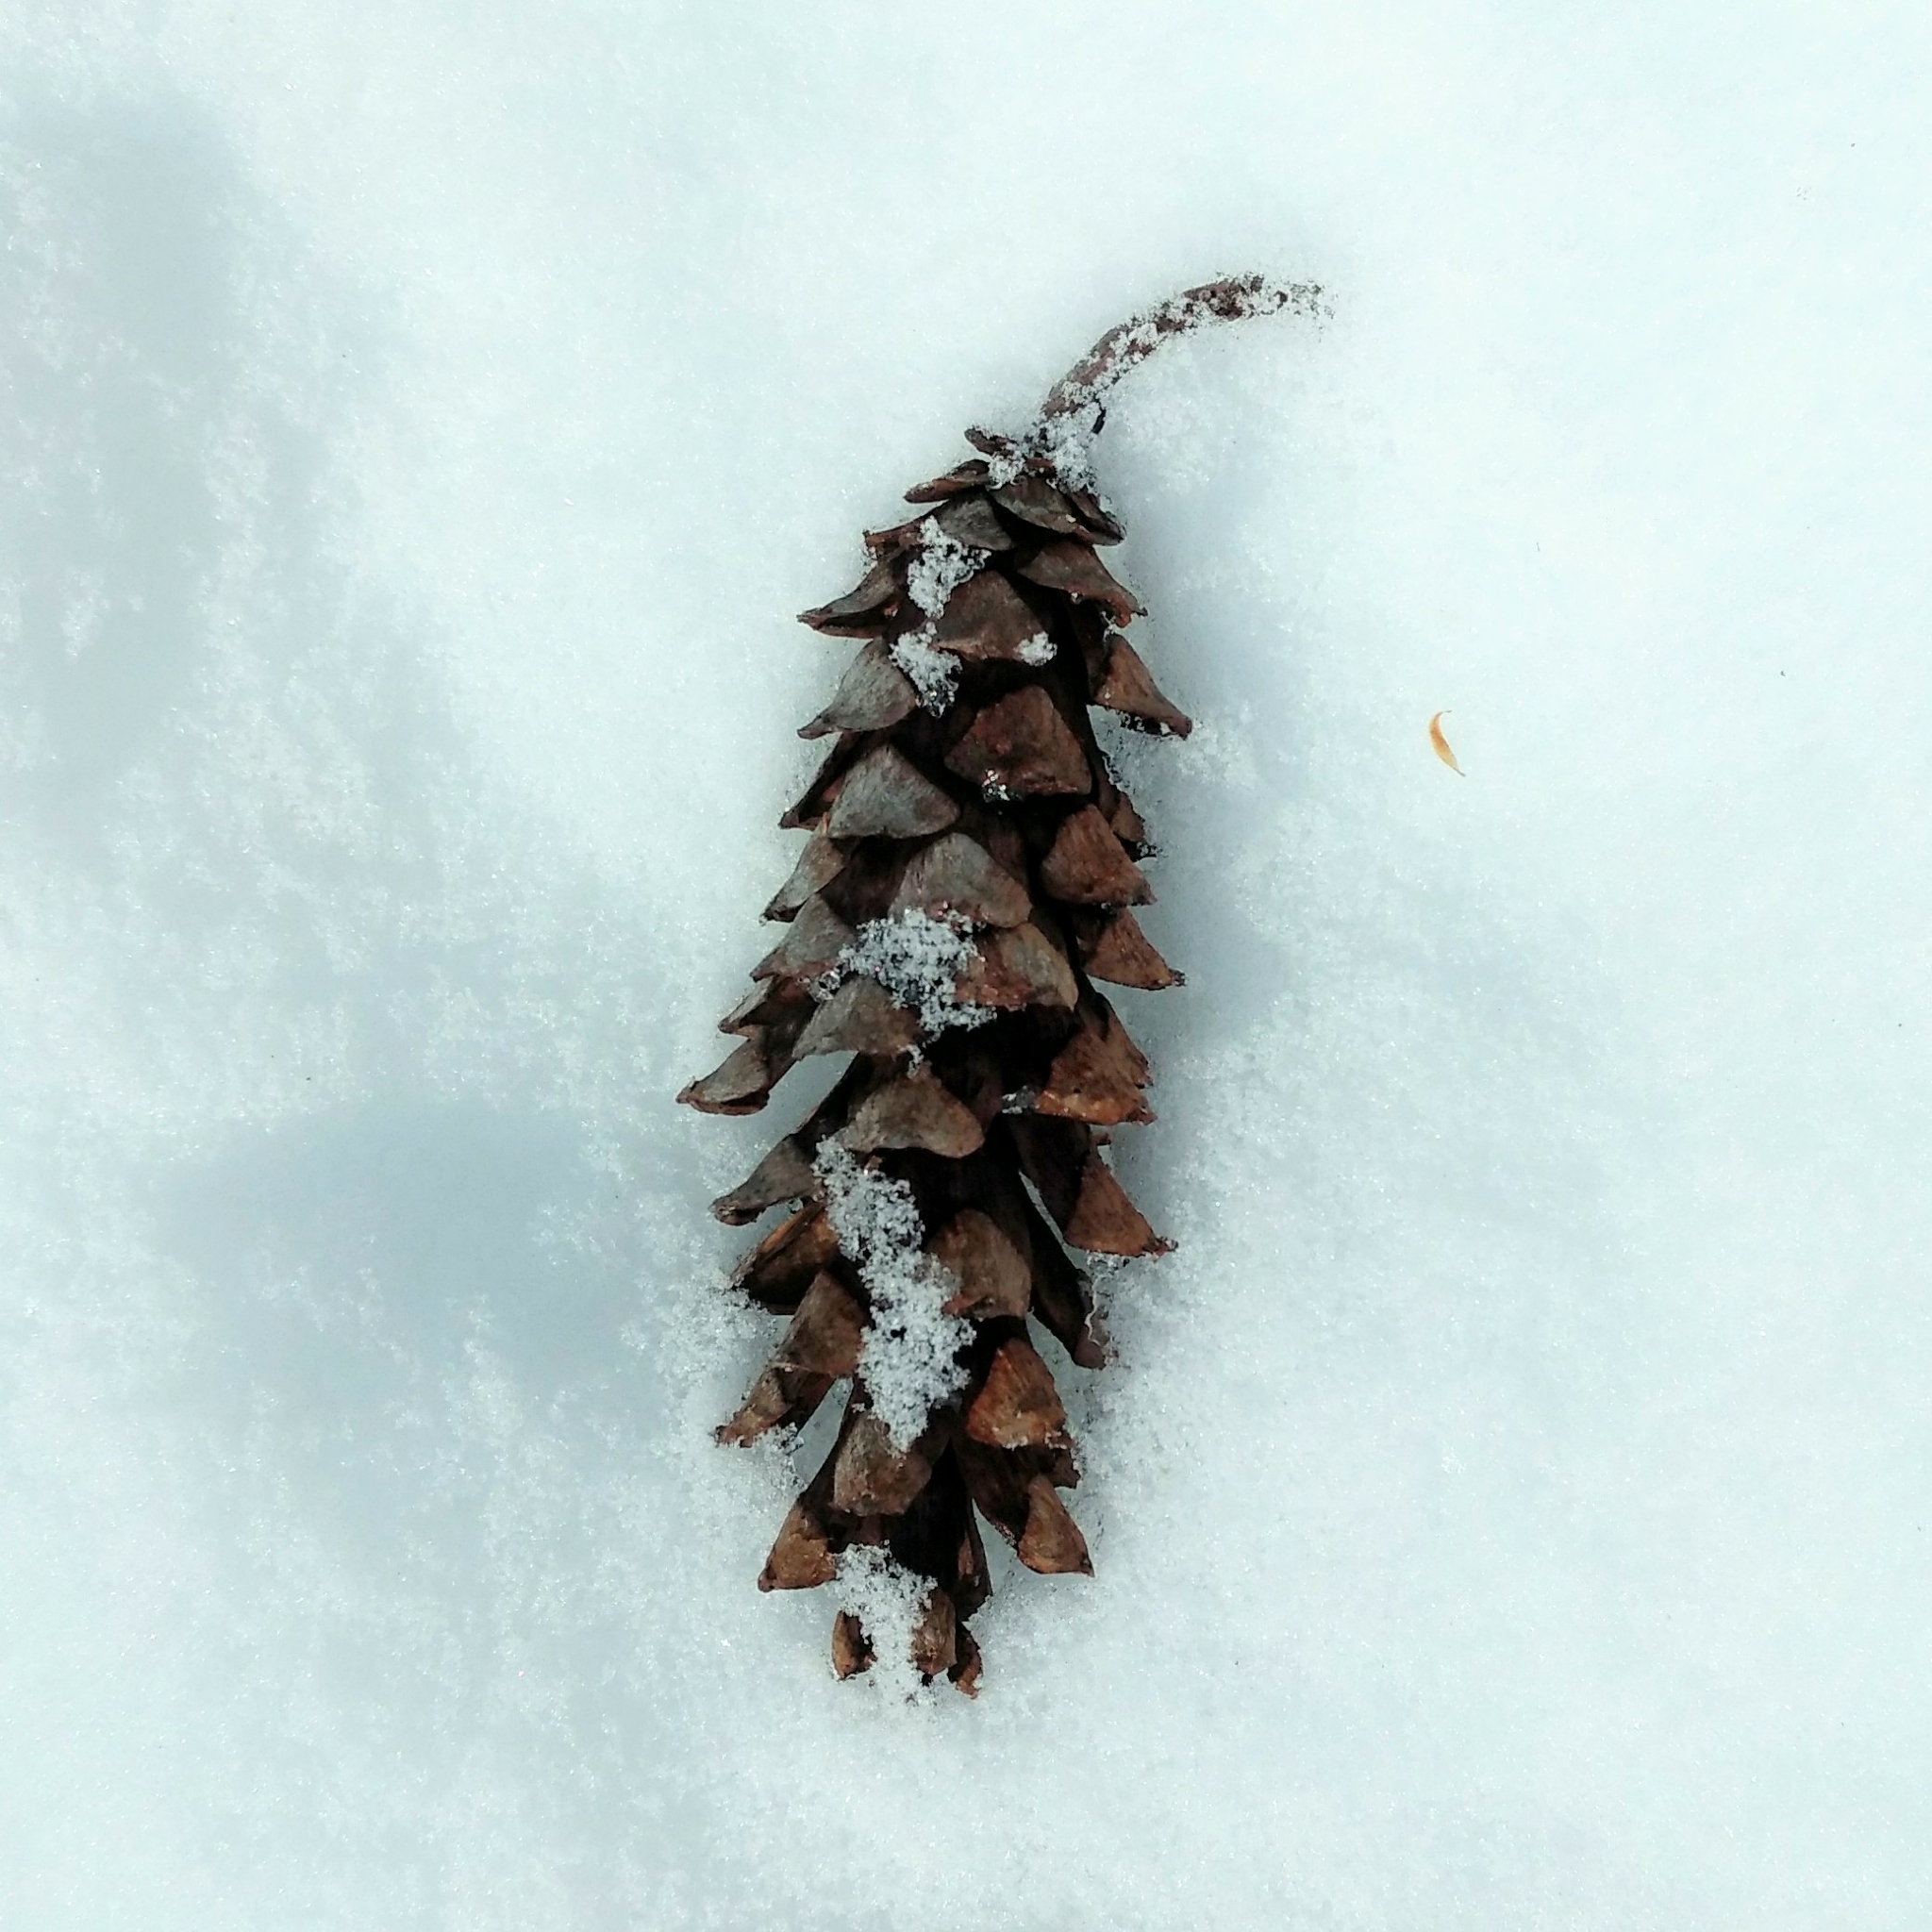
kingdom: Plantae
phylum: Tracheophyta
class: Pinopsida
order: Pinales
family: Pinaceae
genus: Pinus
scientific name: Pinus strobus
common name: Weymouth pine
